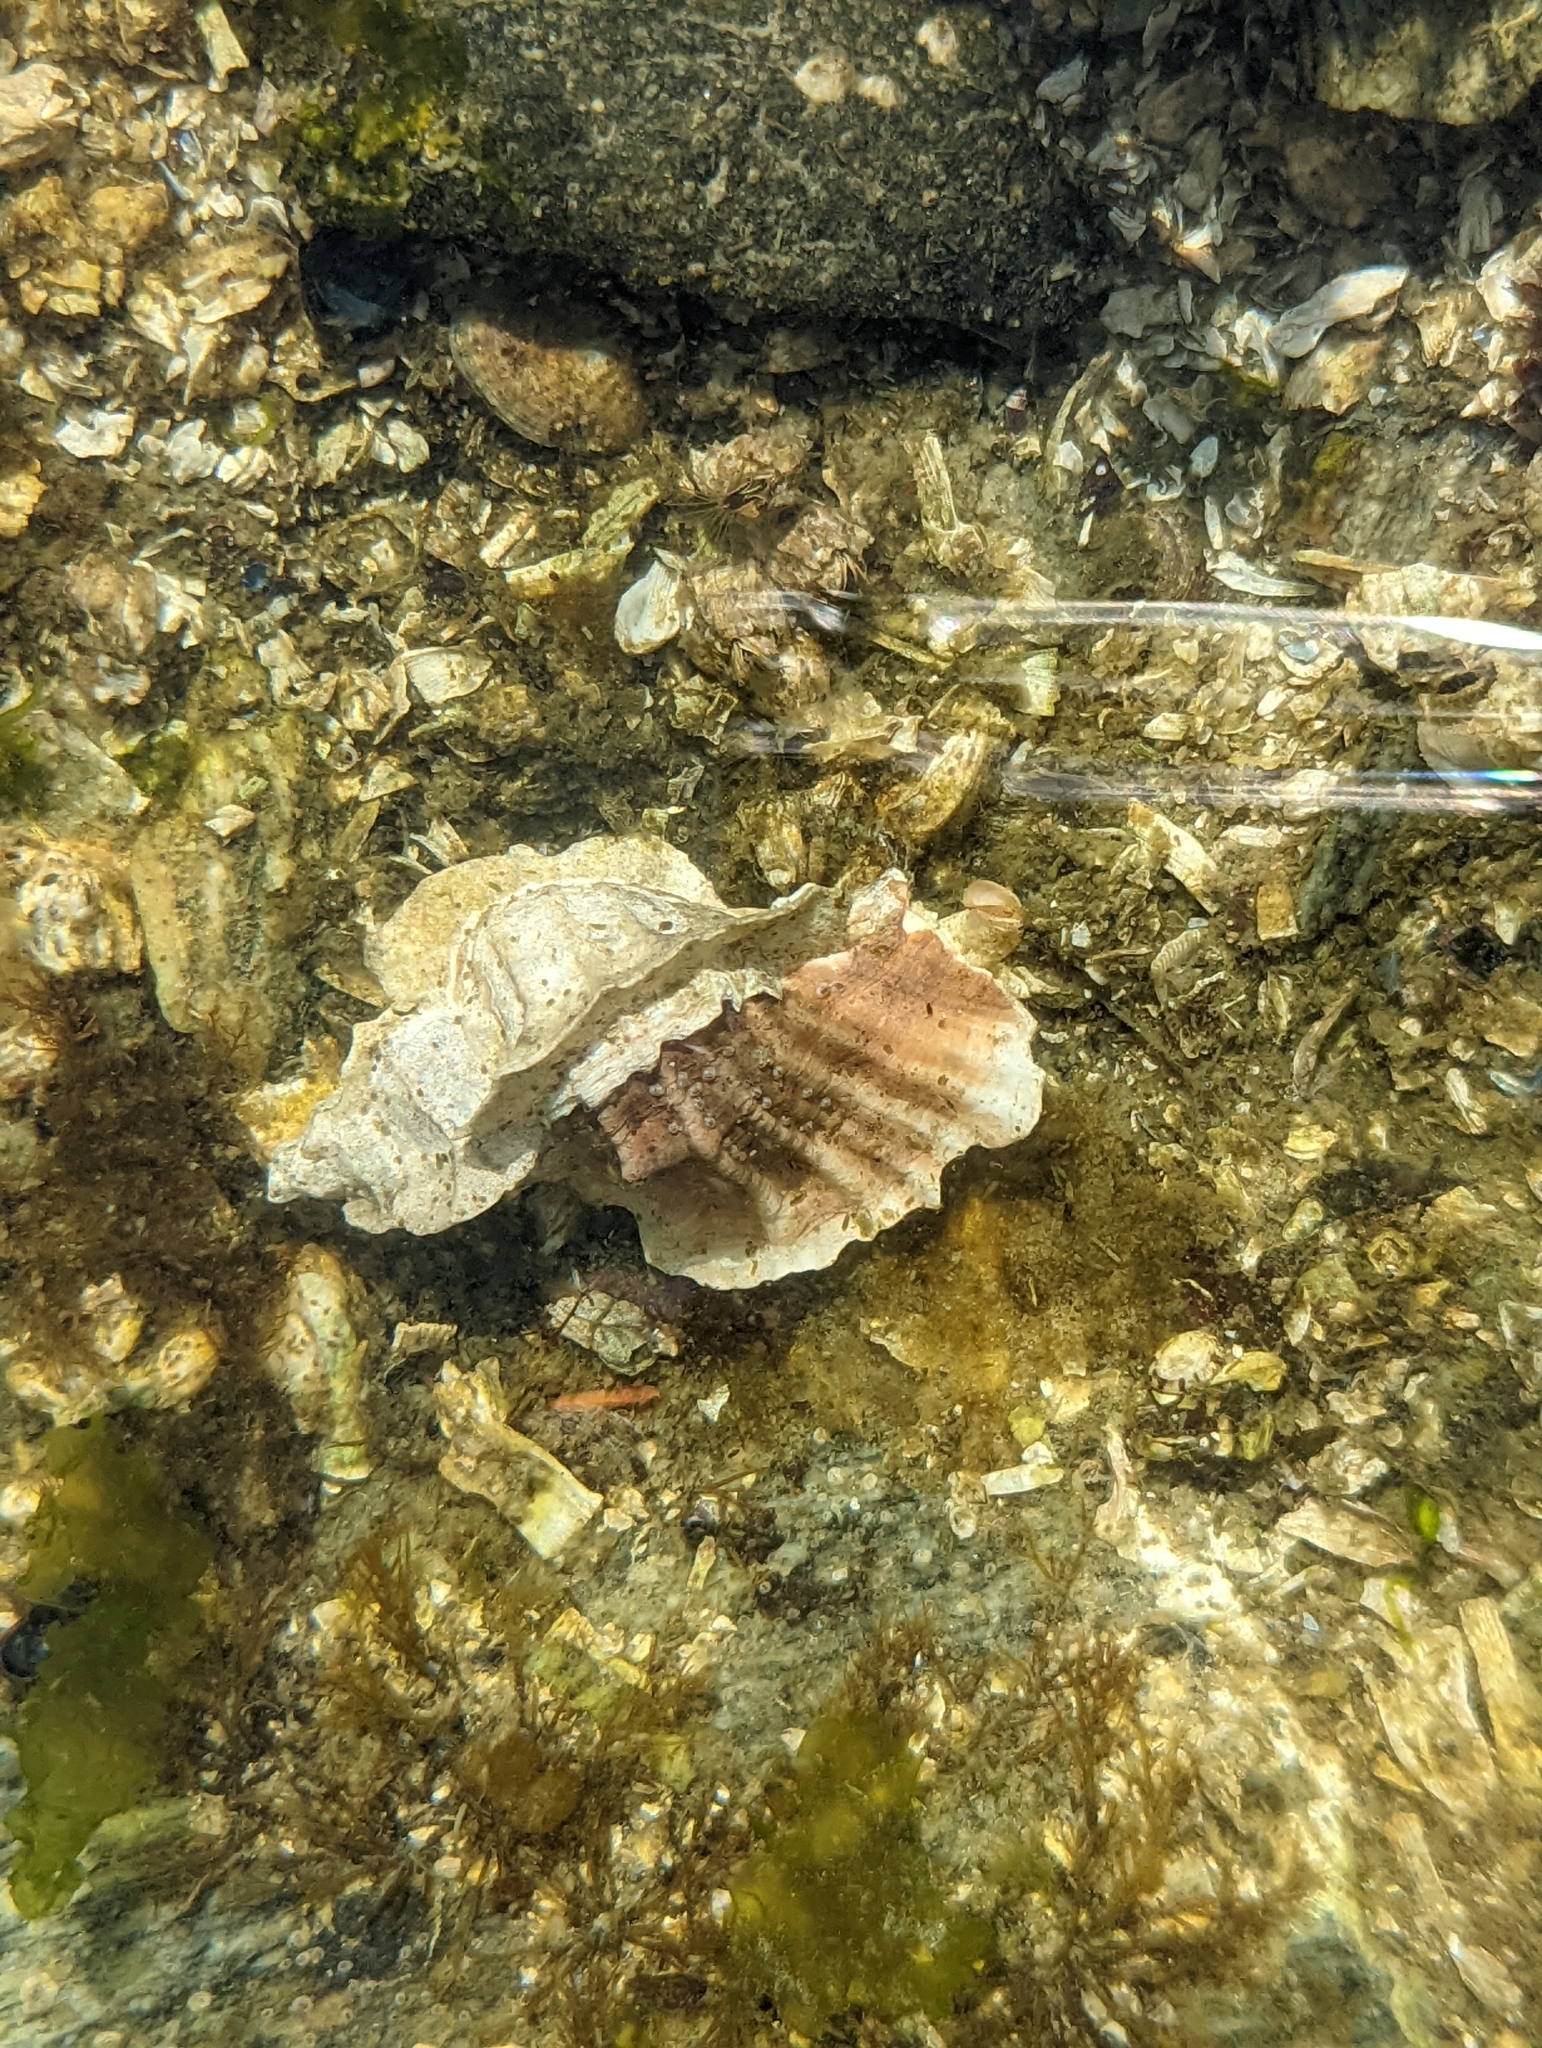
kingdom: Animalia
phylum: Mollusca
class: Gastropoda
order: Neogastropoda
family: Muricidae
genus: Ceratostoma
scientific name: Ceratostoma foliatum
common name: Foliate thorn purpura
